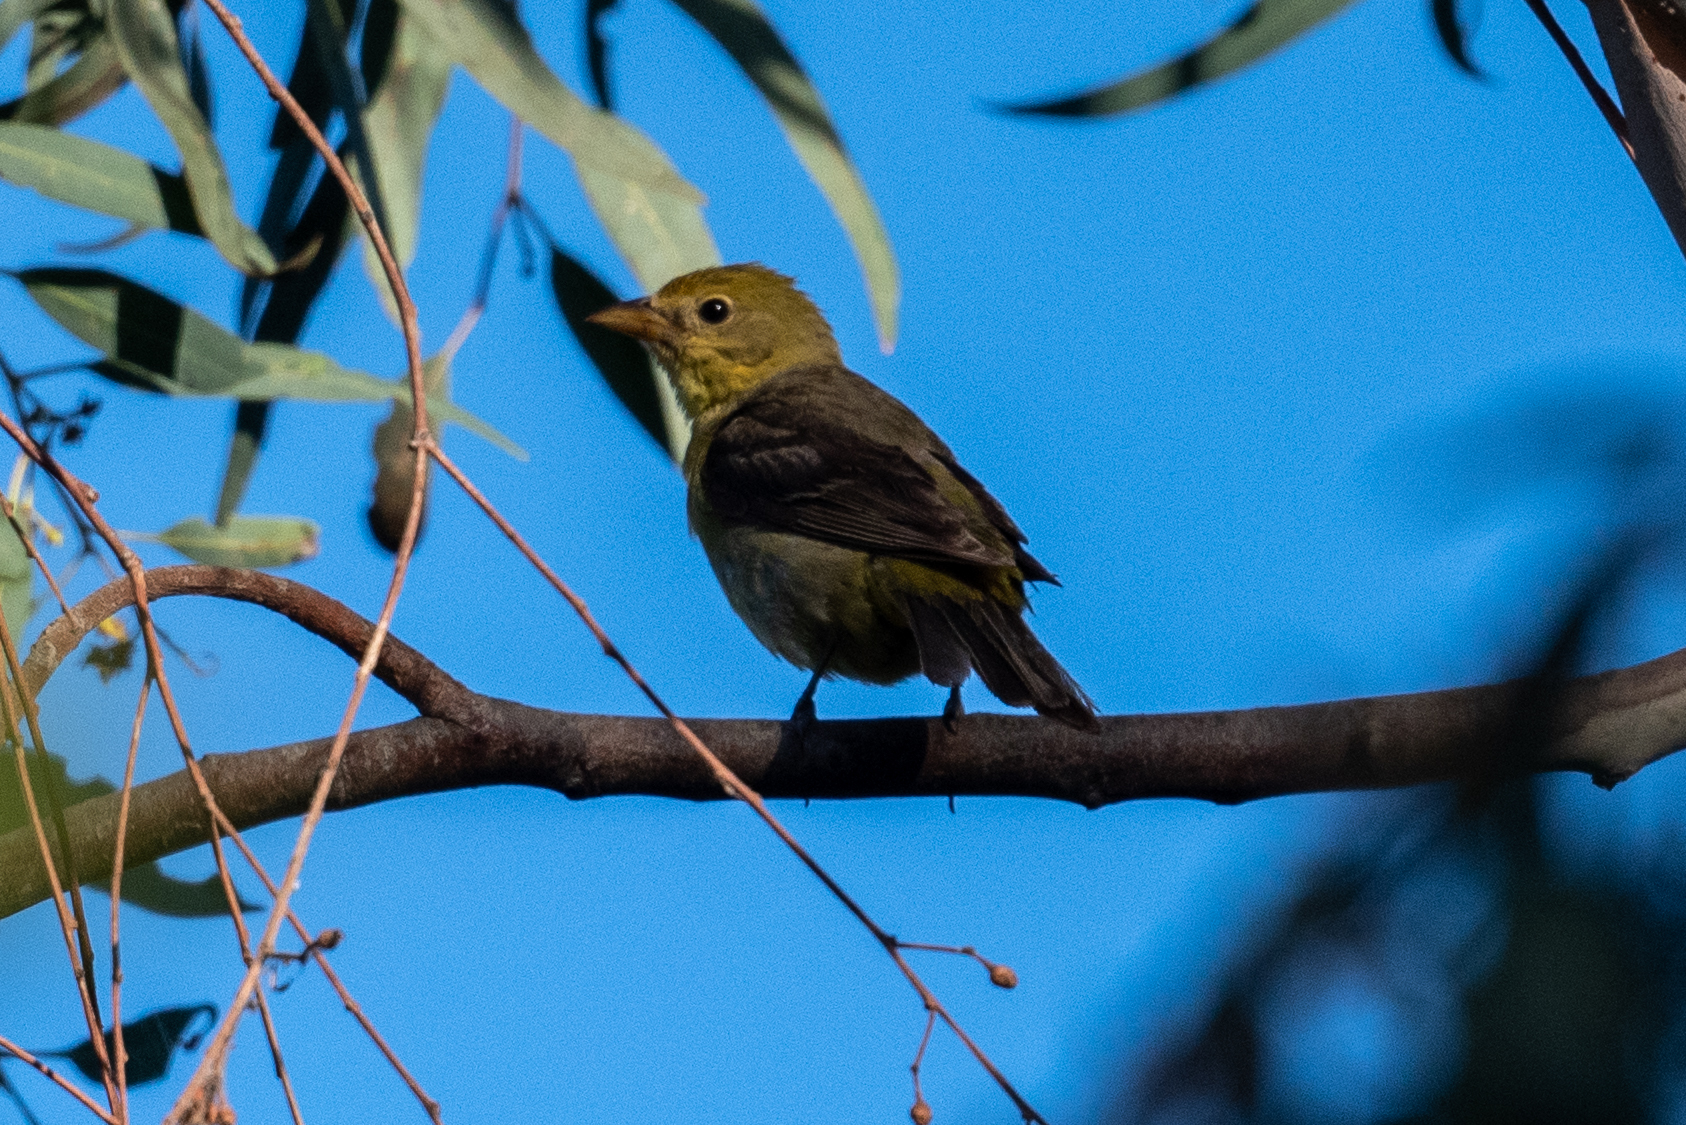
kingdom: Animalia
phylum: Chordata
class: Aves
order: Passeriformes
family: Cardinalidae
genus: Piranga
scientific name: Piranga ludoviciana
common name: Western tanager
